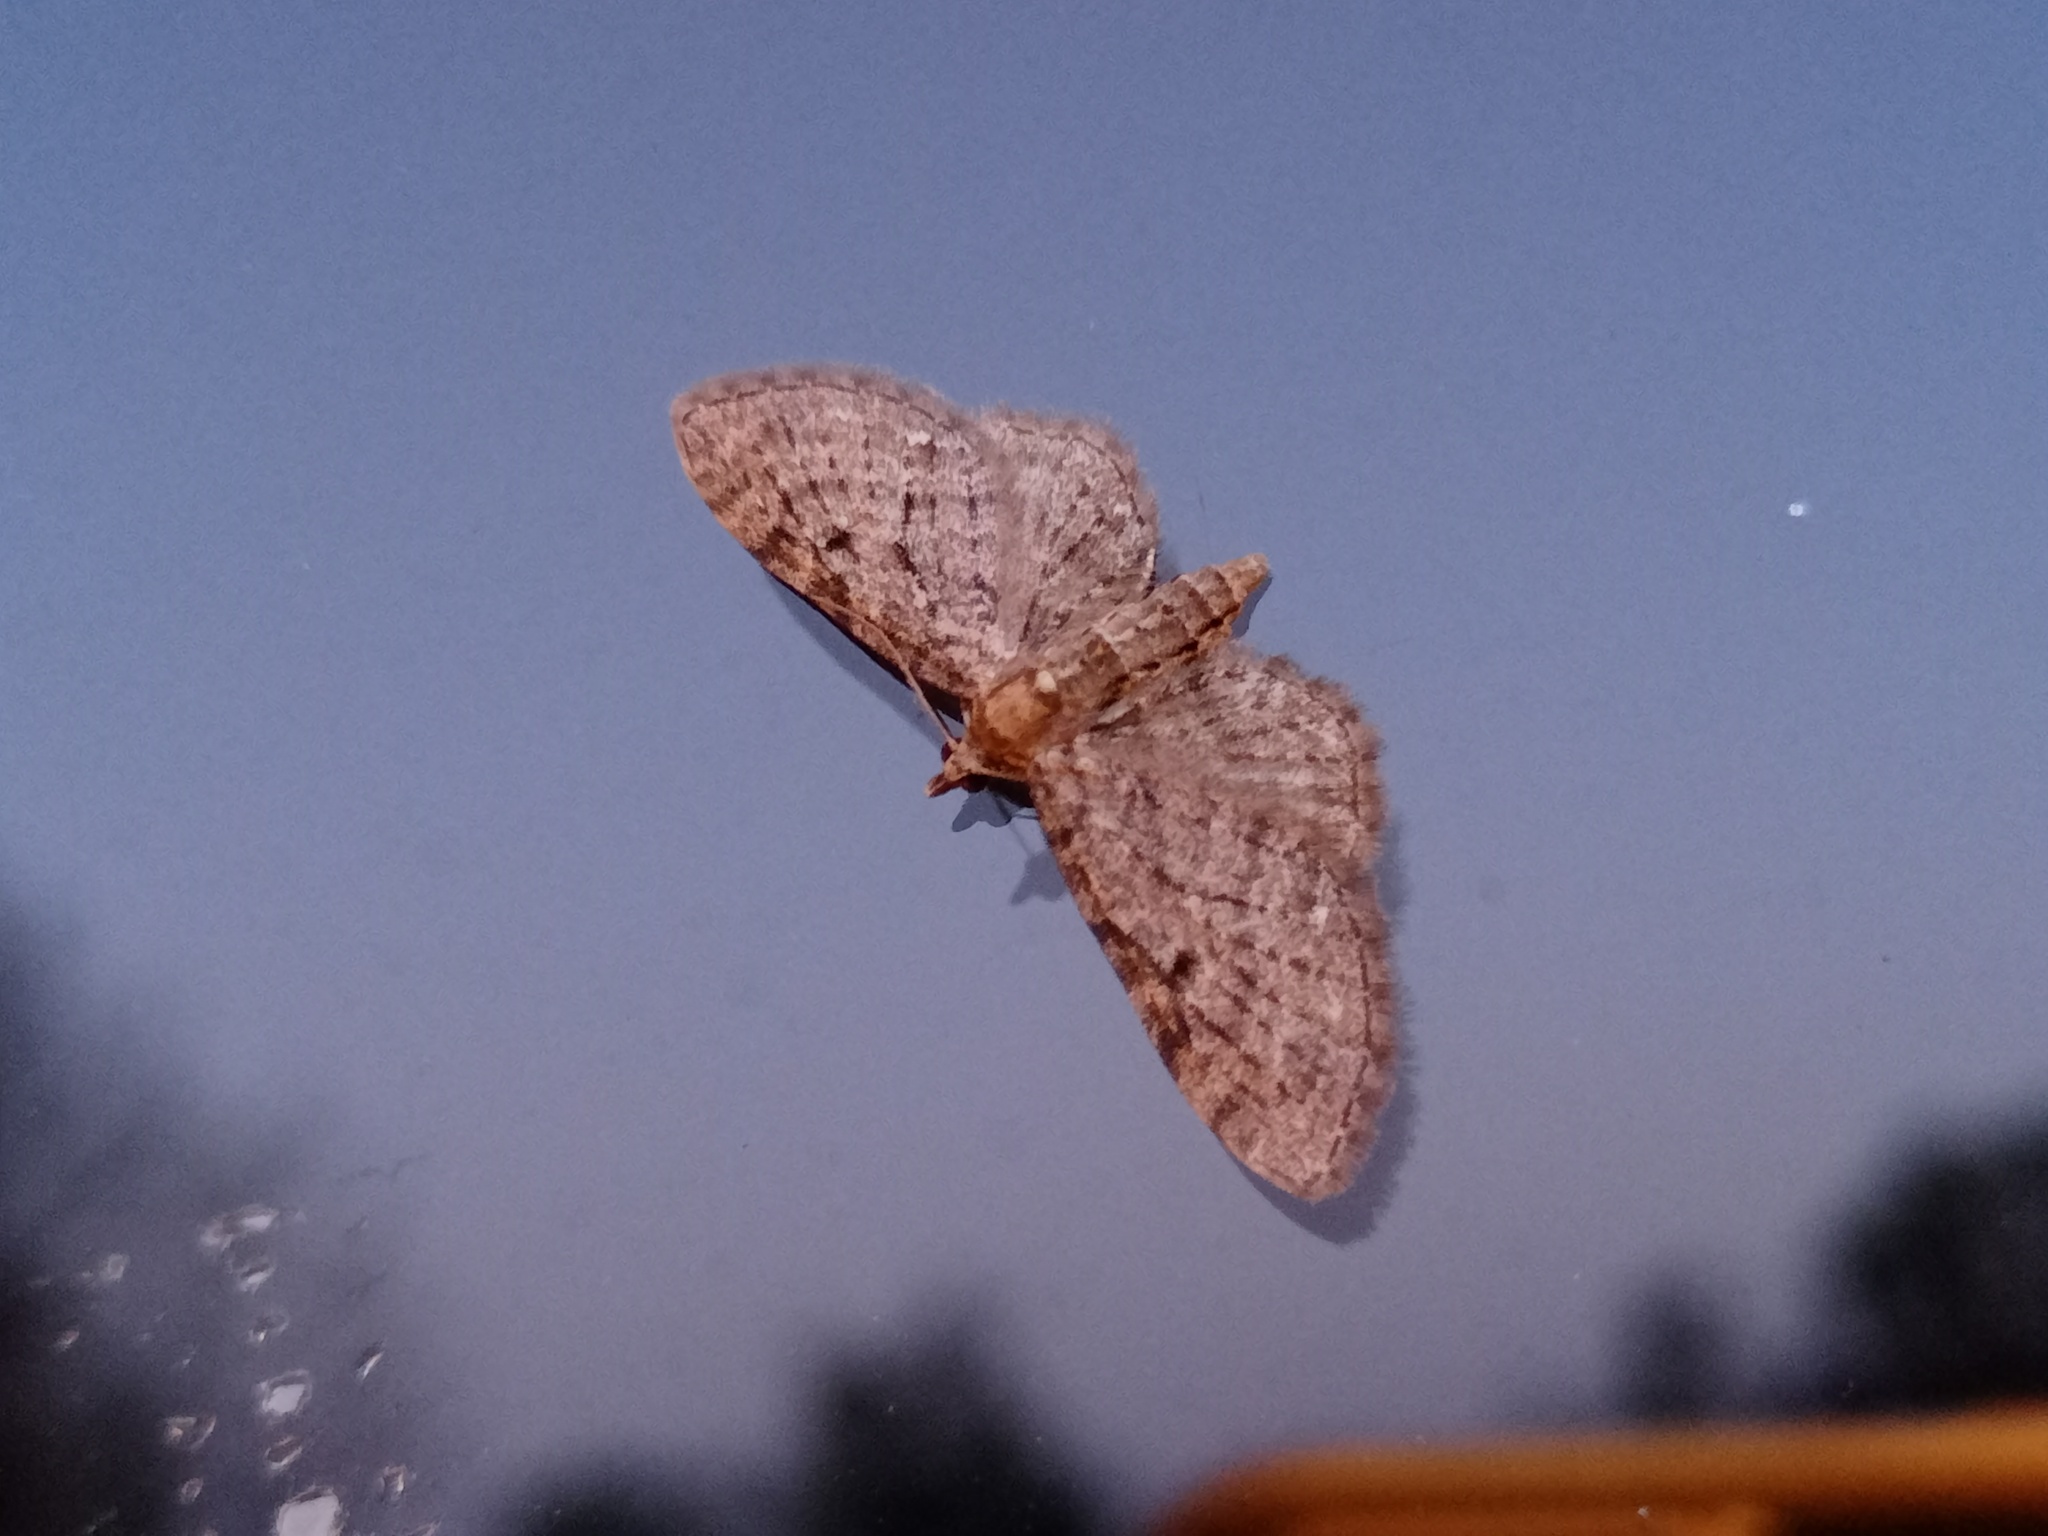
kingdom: Animalia
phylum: Arthropoda
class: Insecta
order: Lepidoptera
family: Geometridae
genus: Eupithecia
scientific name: Eupithecia virgaureata
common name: Golden-rod pug
